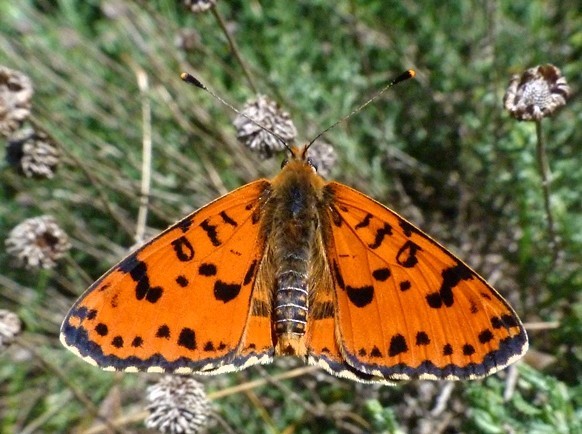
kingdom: Animalia
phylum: Arthropoda
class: Insecta
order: Lepidoptera
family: Nymphalidae
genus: Melitaea
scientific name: Melitaea didyma
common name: Spotted fritillary
